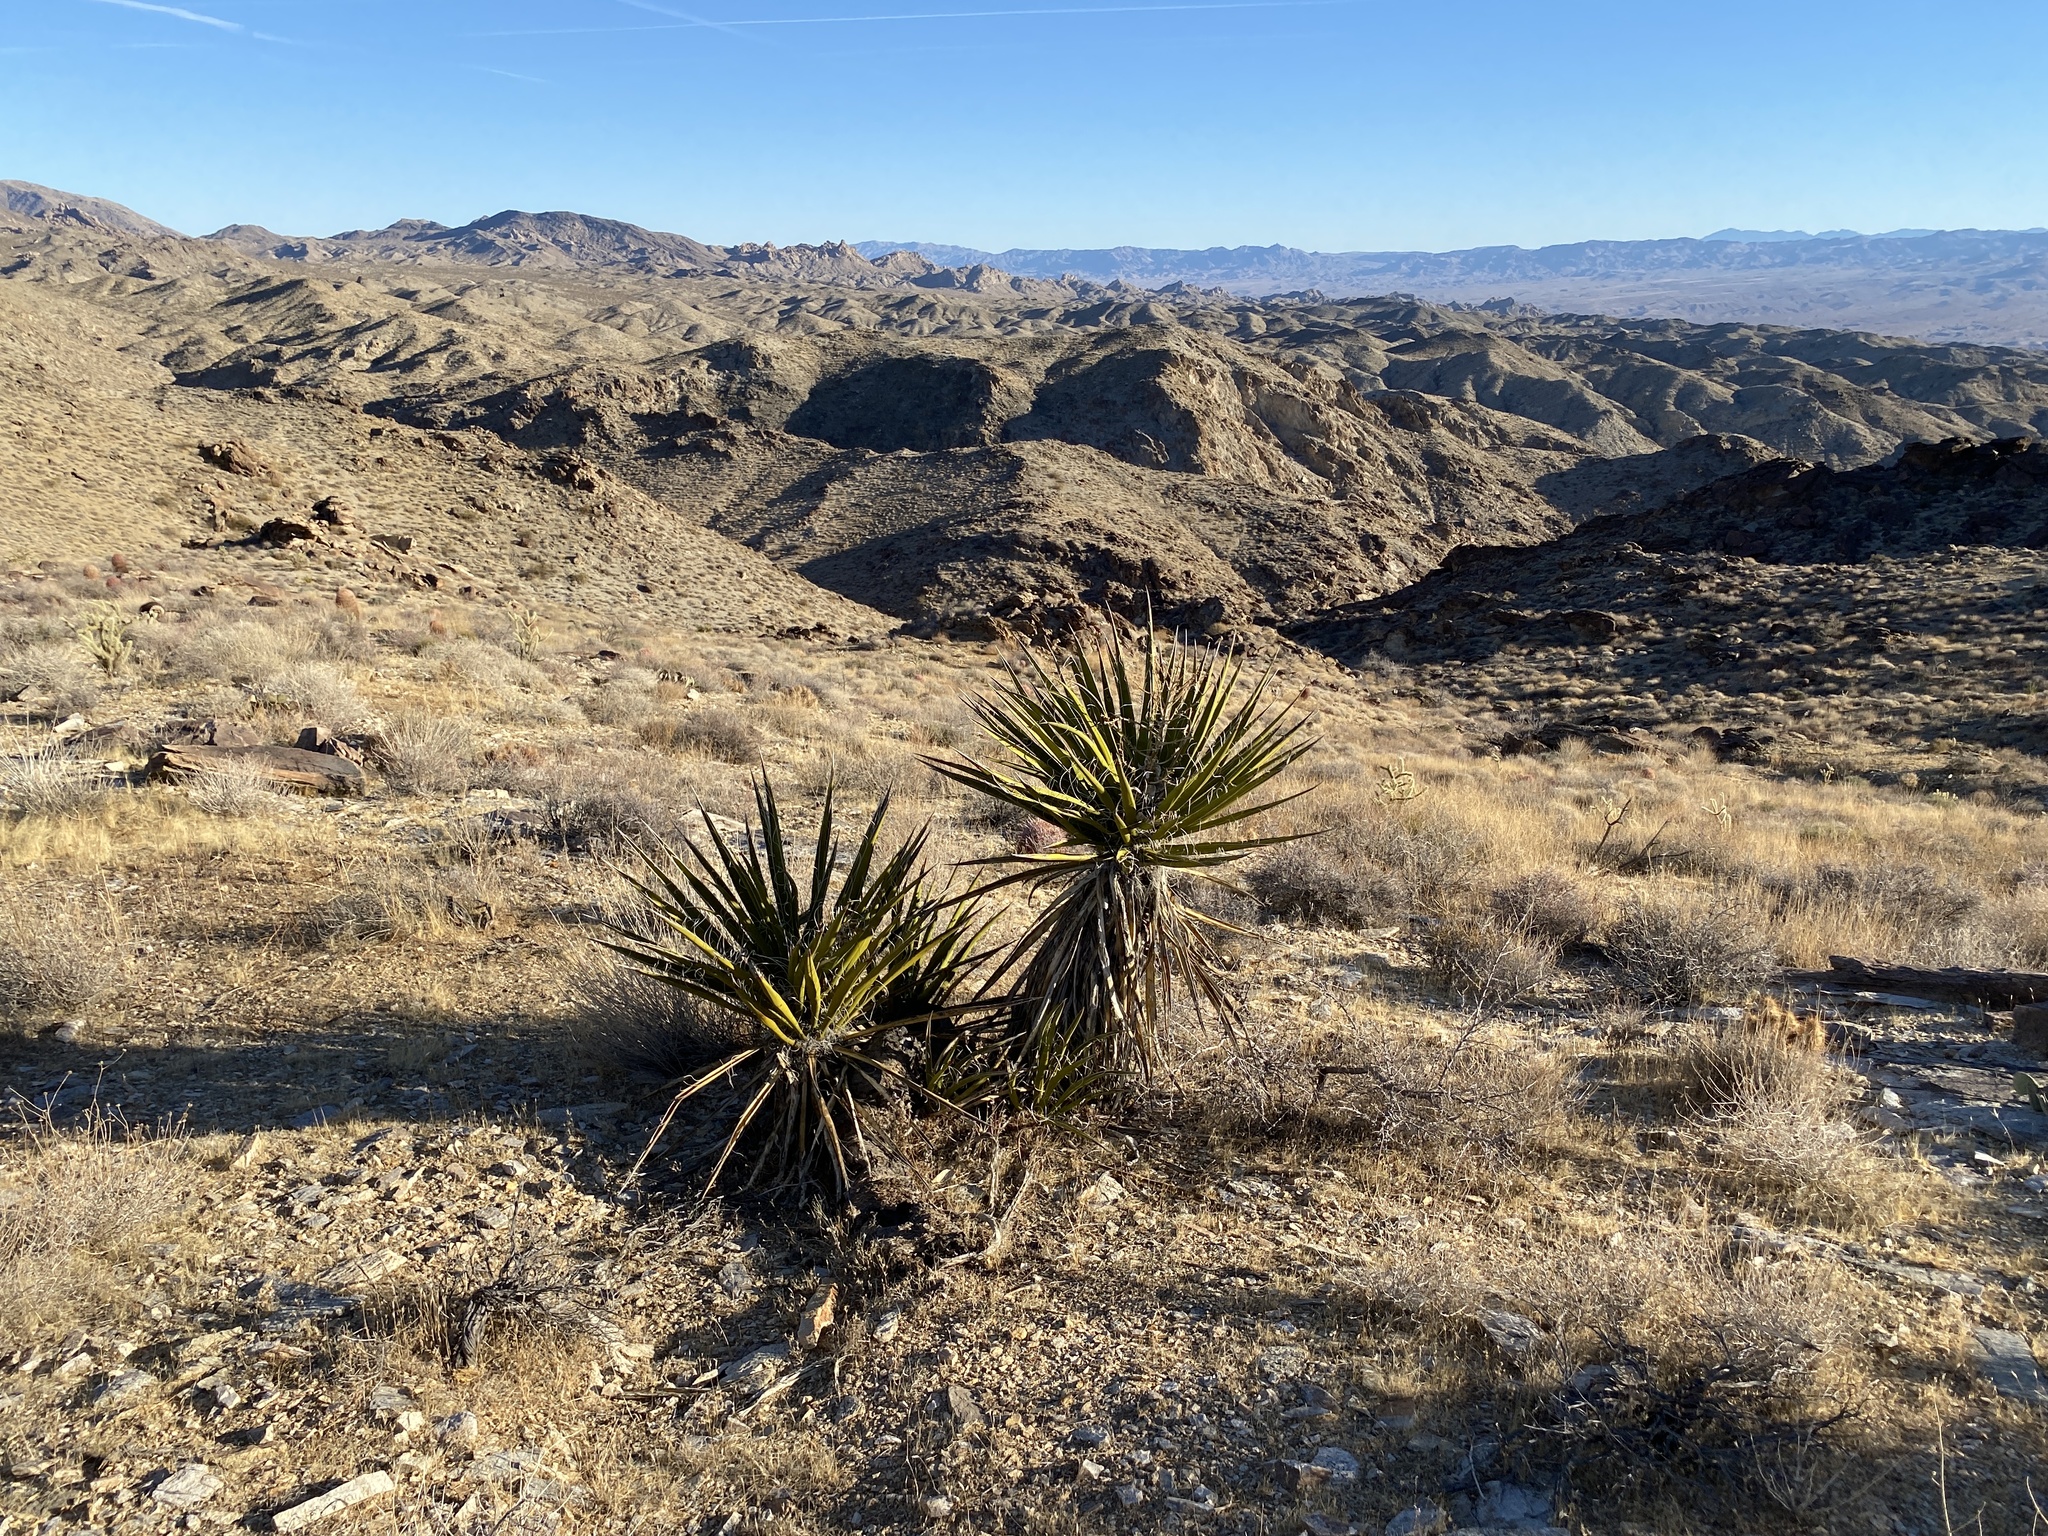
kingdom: Plantae
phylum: Tracheophyta
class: Liliopsida
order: Asparagales
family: Asparagaceae
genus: Yucca
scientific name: Yucca schidigera
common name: Mojave yucca
